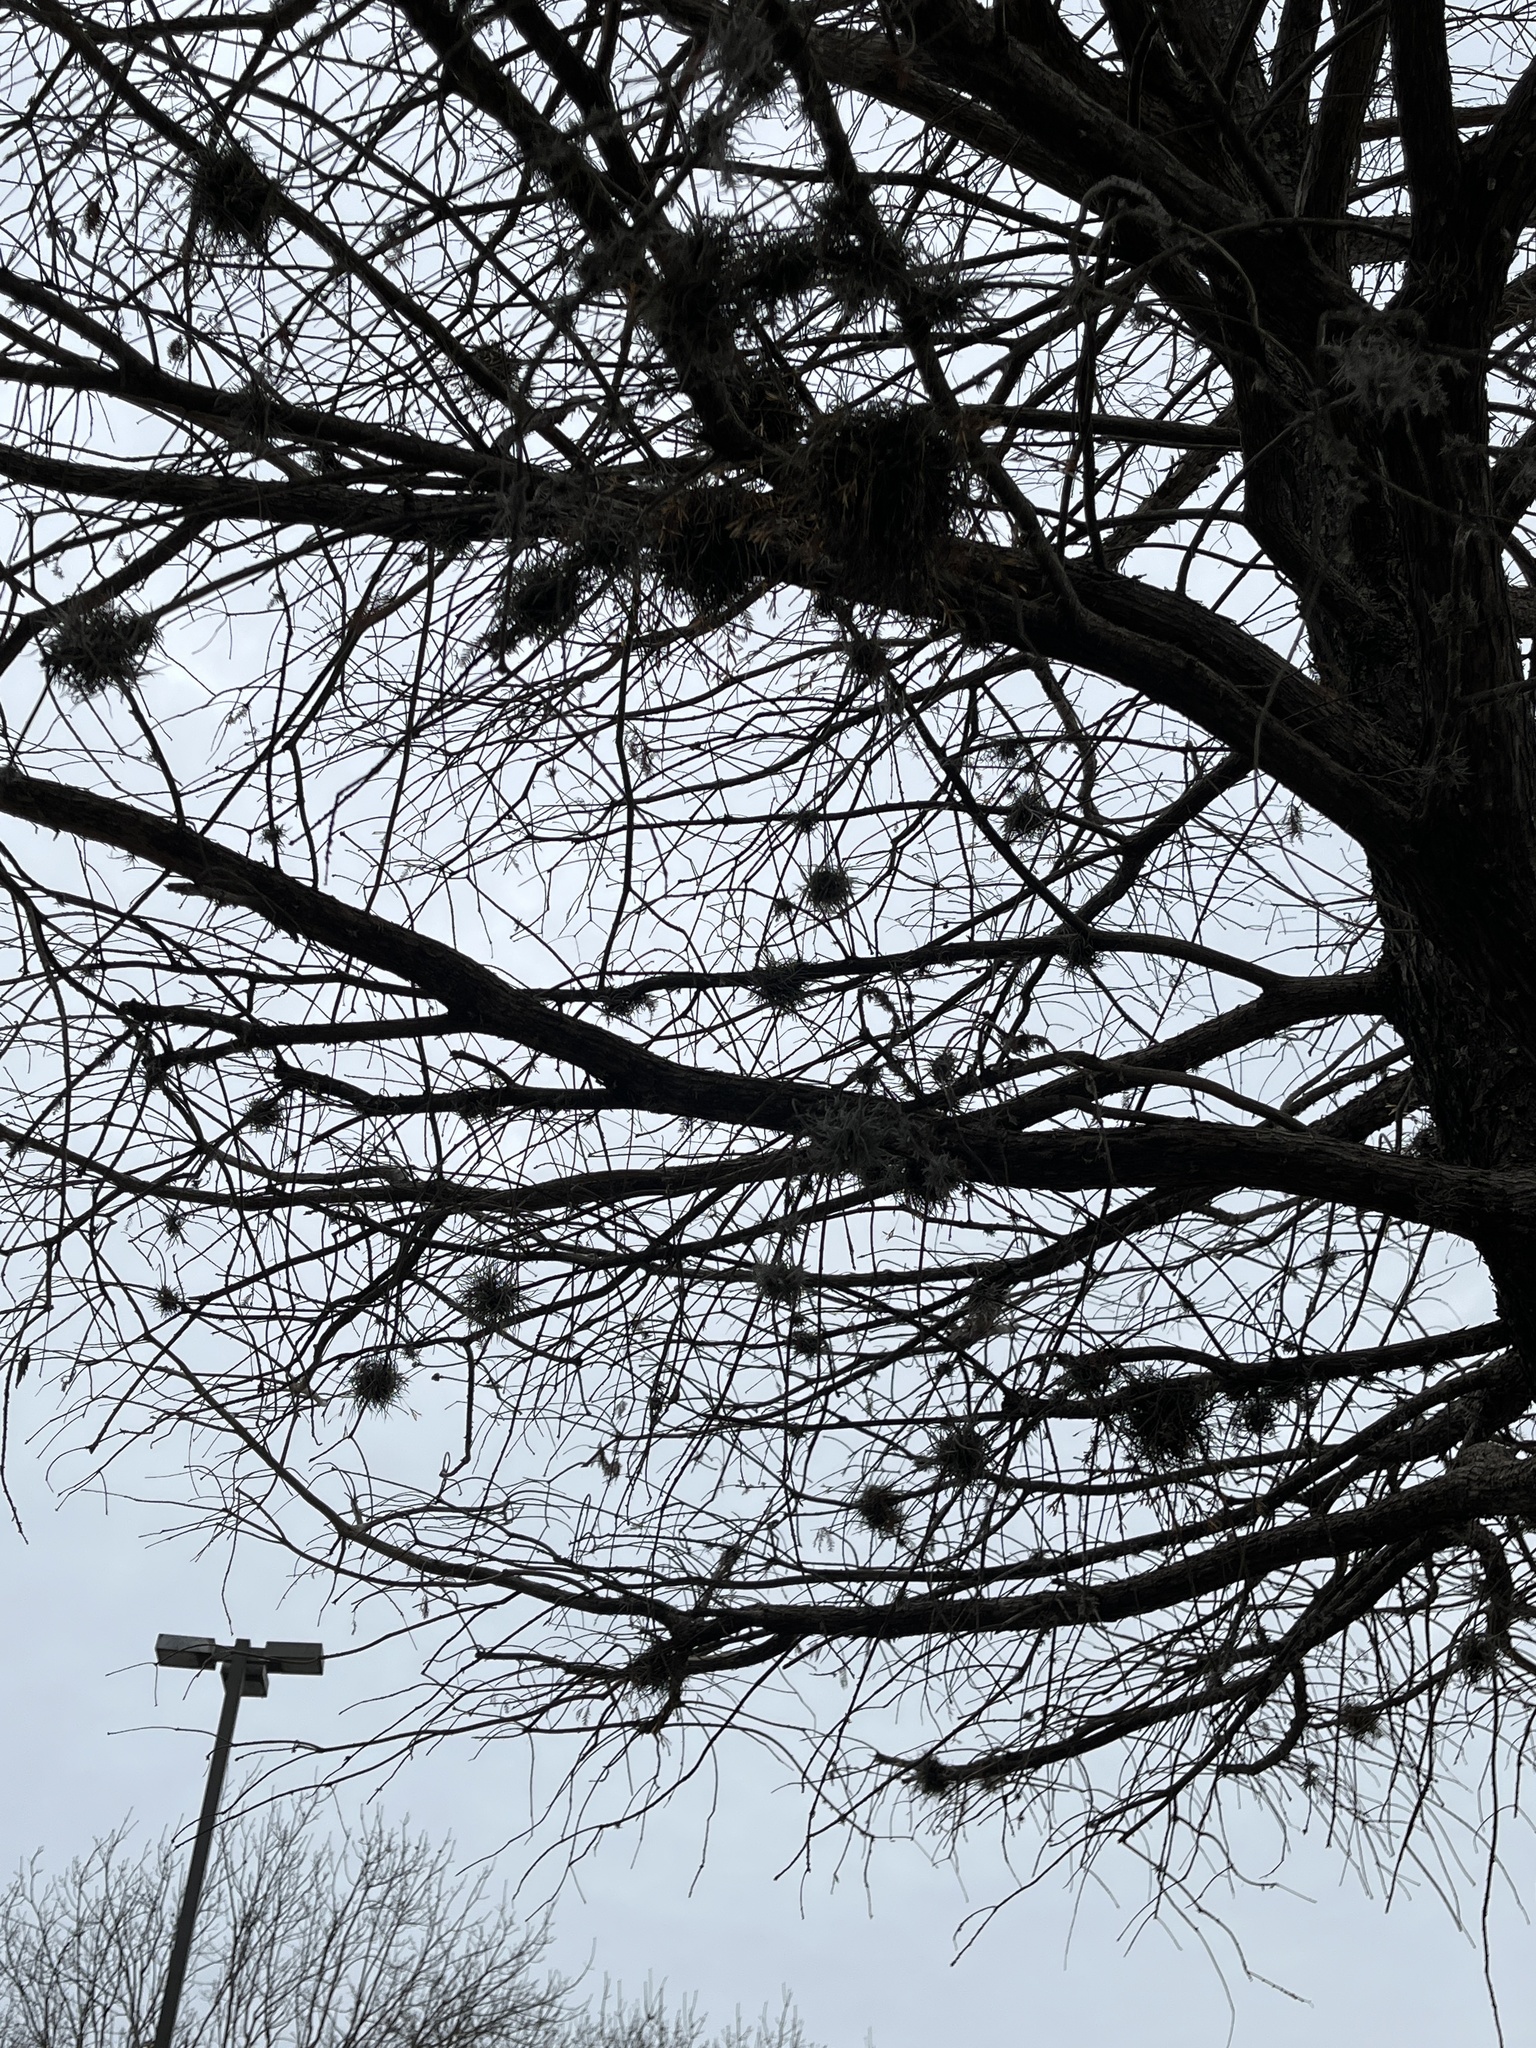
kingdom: Plantae
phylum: Tracheophyta
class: Liliopsida
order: Poales
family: Bromeliaceae
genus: Tillandsia
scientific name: Tillandsia recurvata
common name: Small ballmoss
